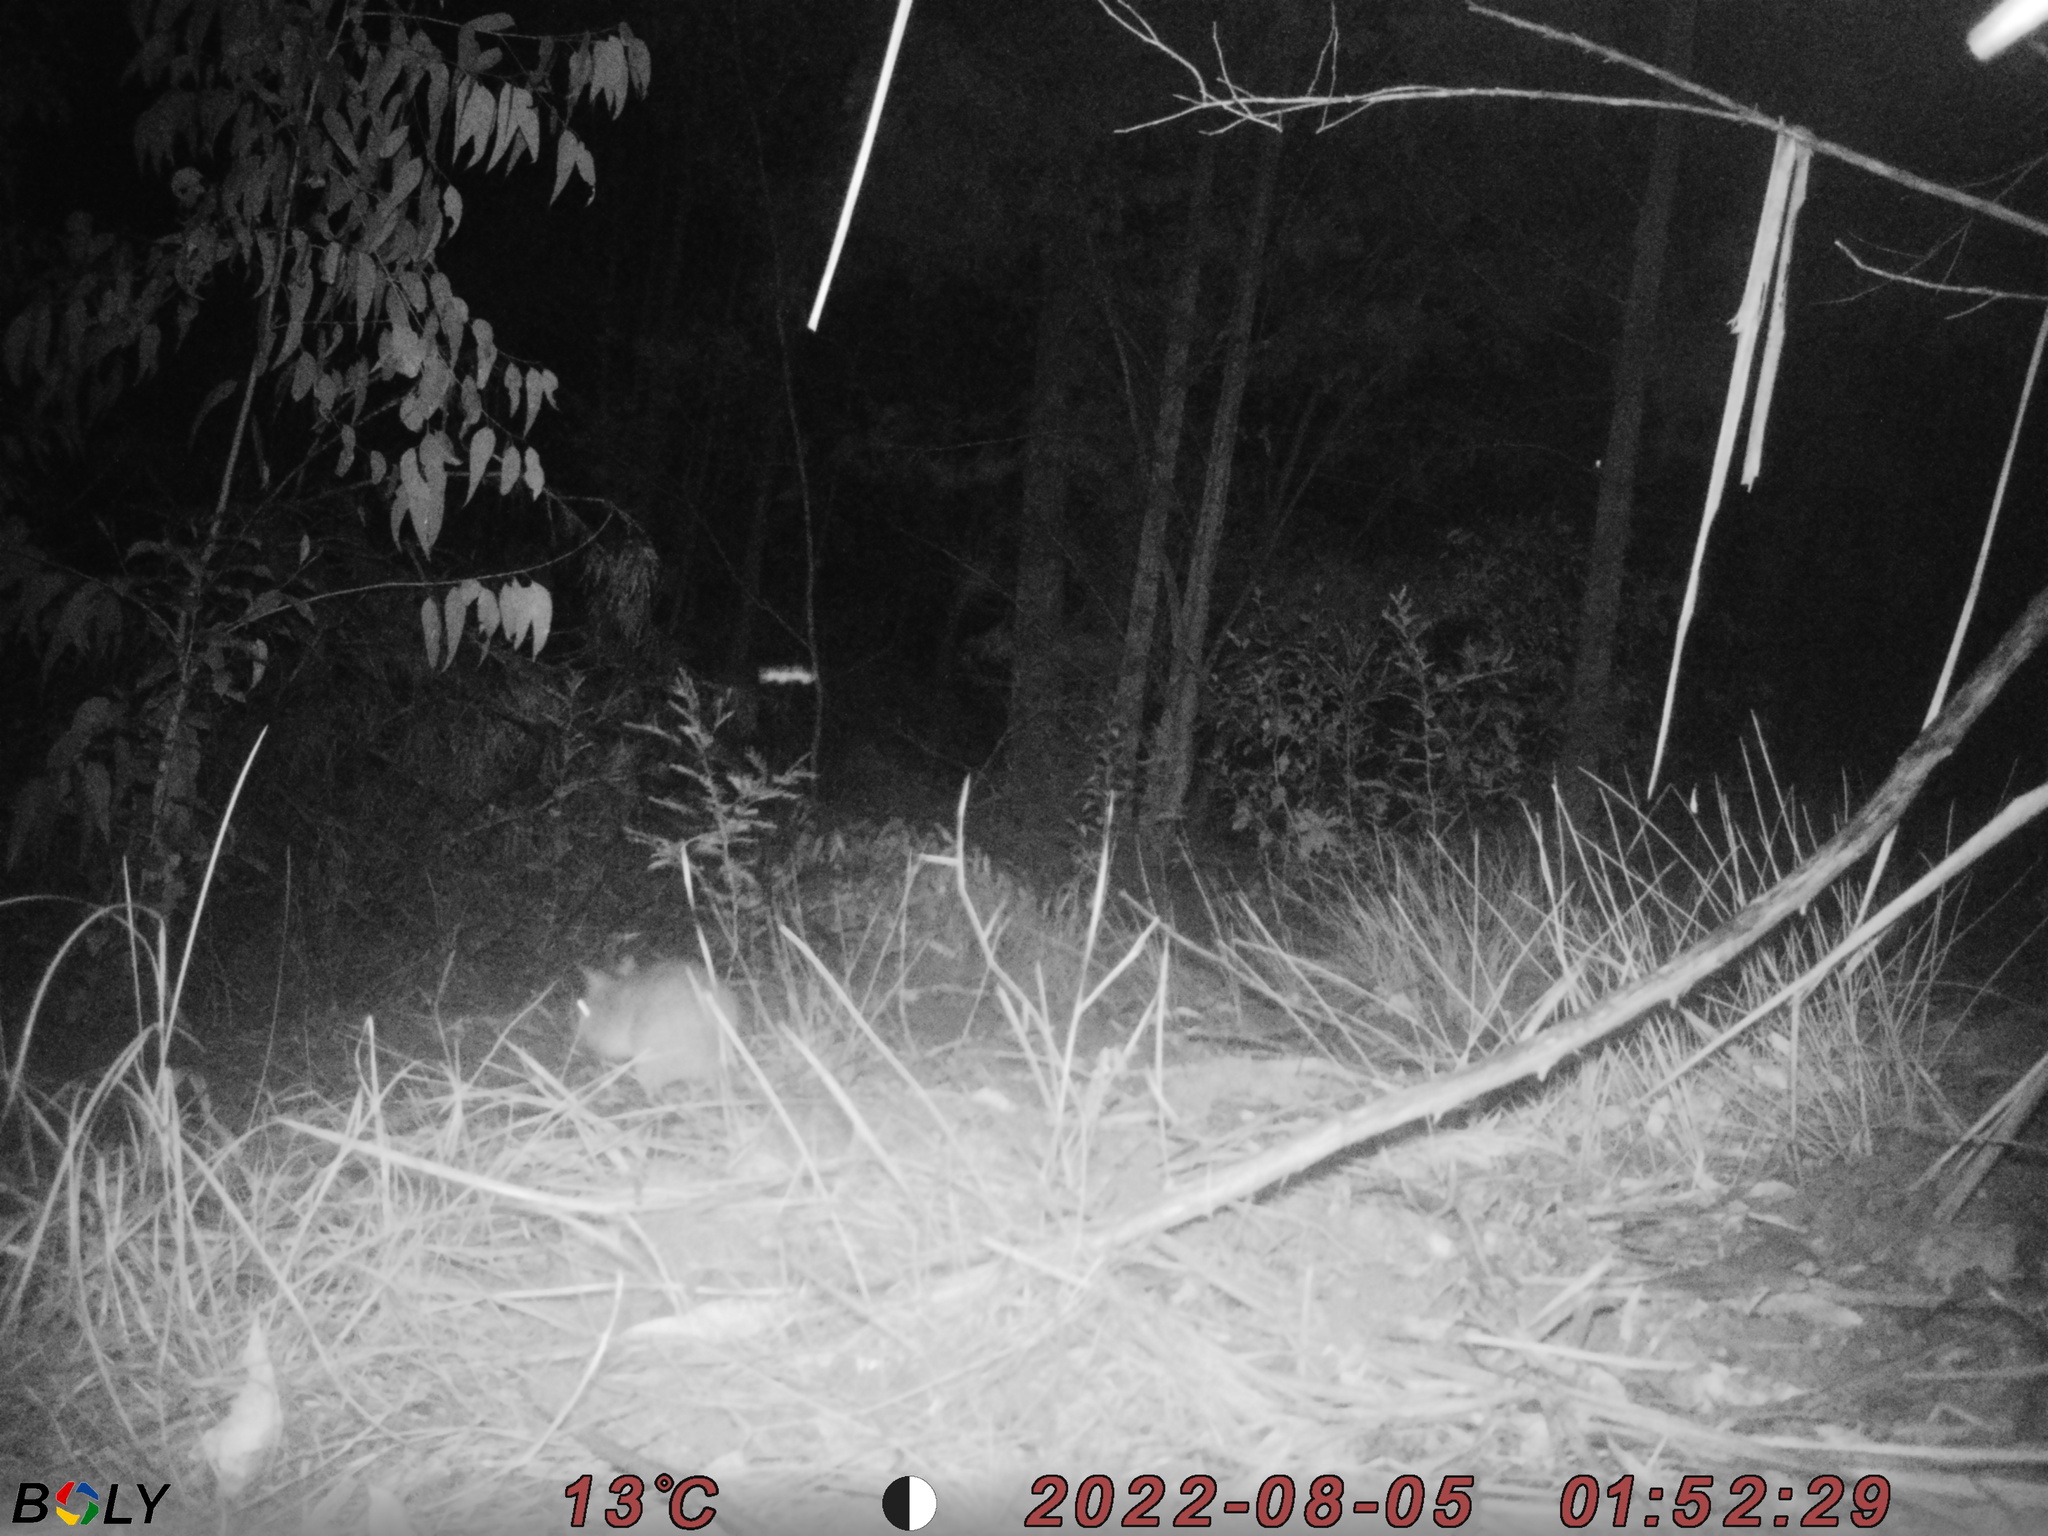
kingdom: Animalia
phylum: Chordata
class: Mammalia
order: Peramelemorphia
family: Peramelidae
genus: Perameles
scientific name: Perameles nasuta
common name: Long-nosed bandicoot
